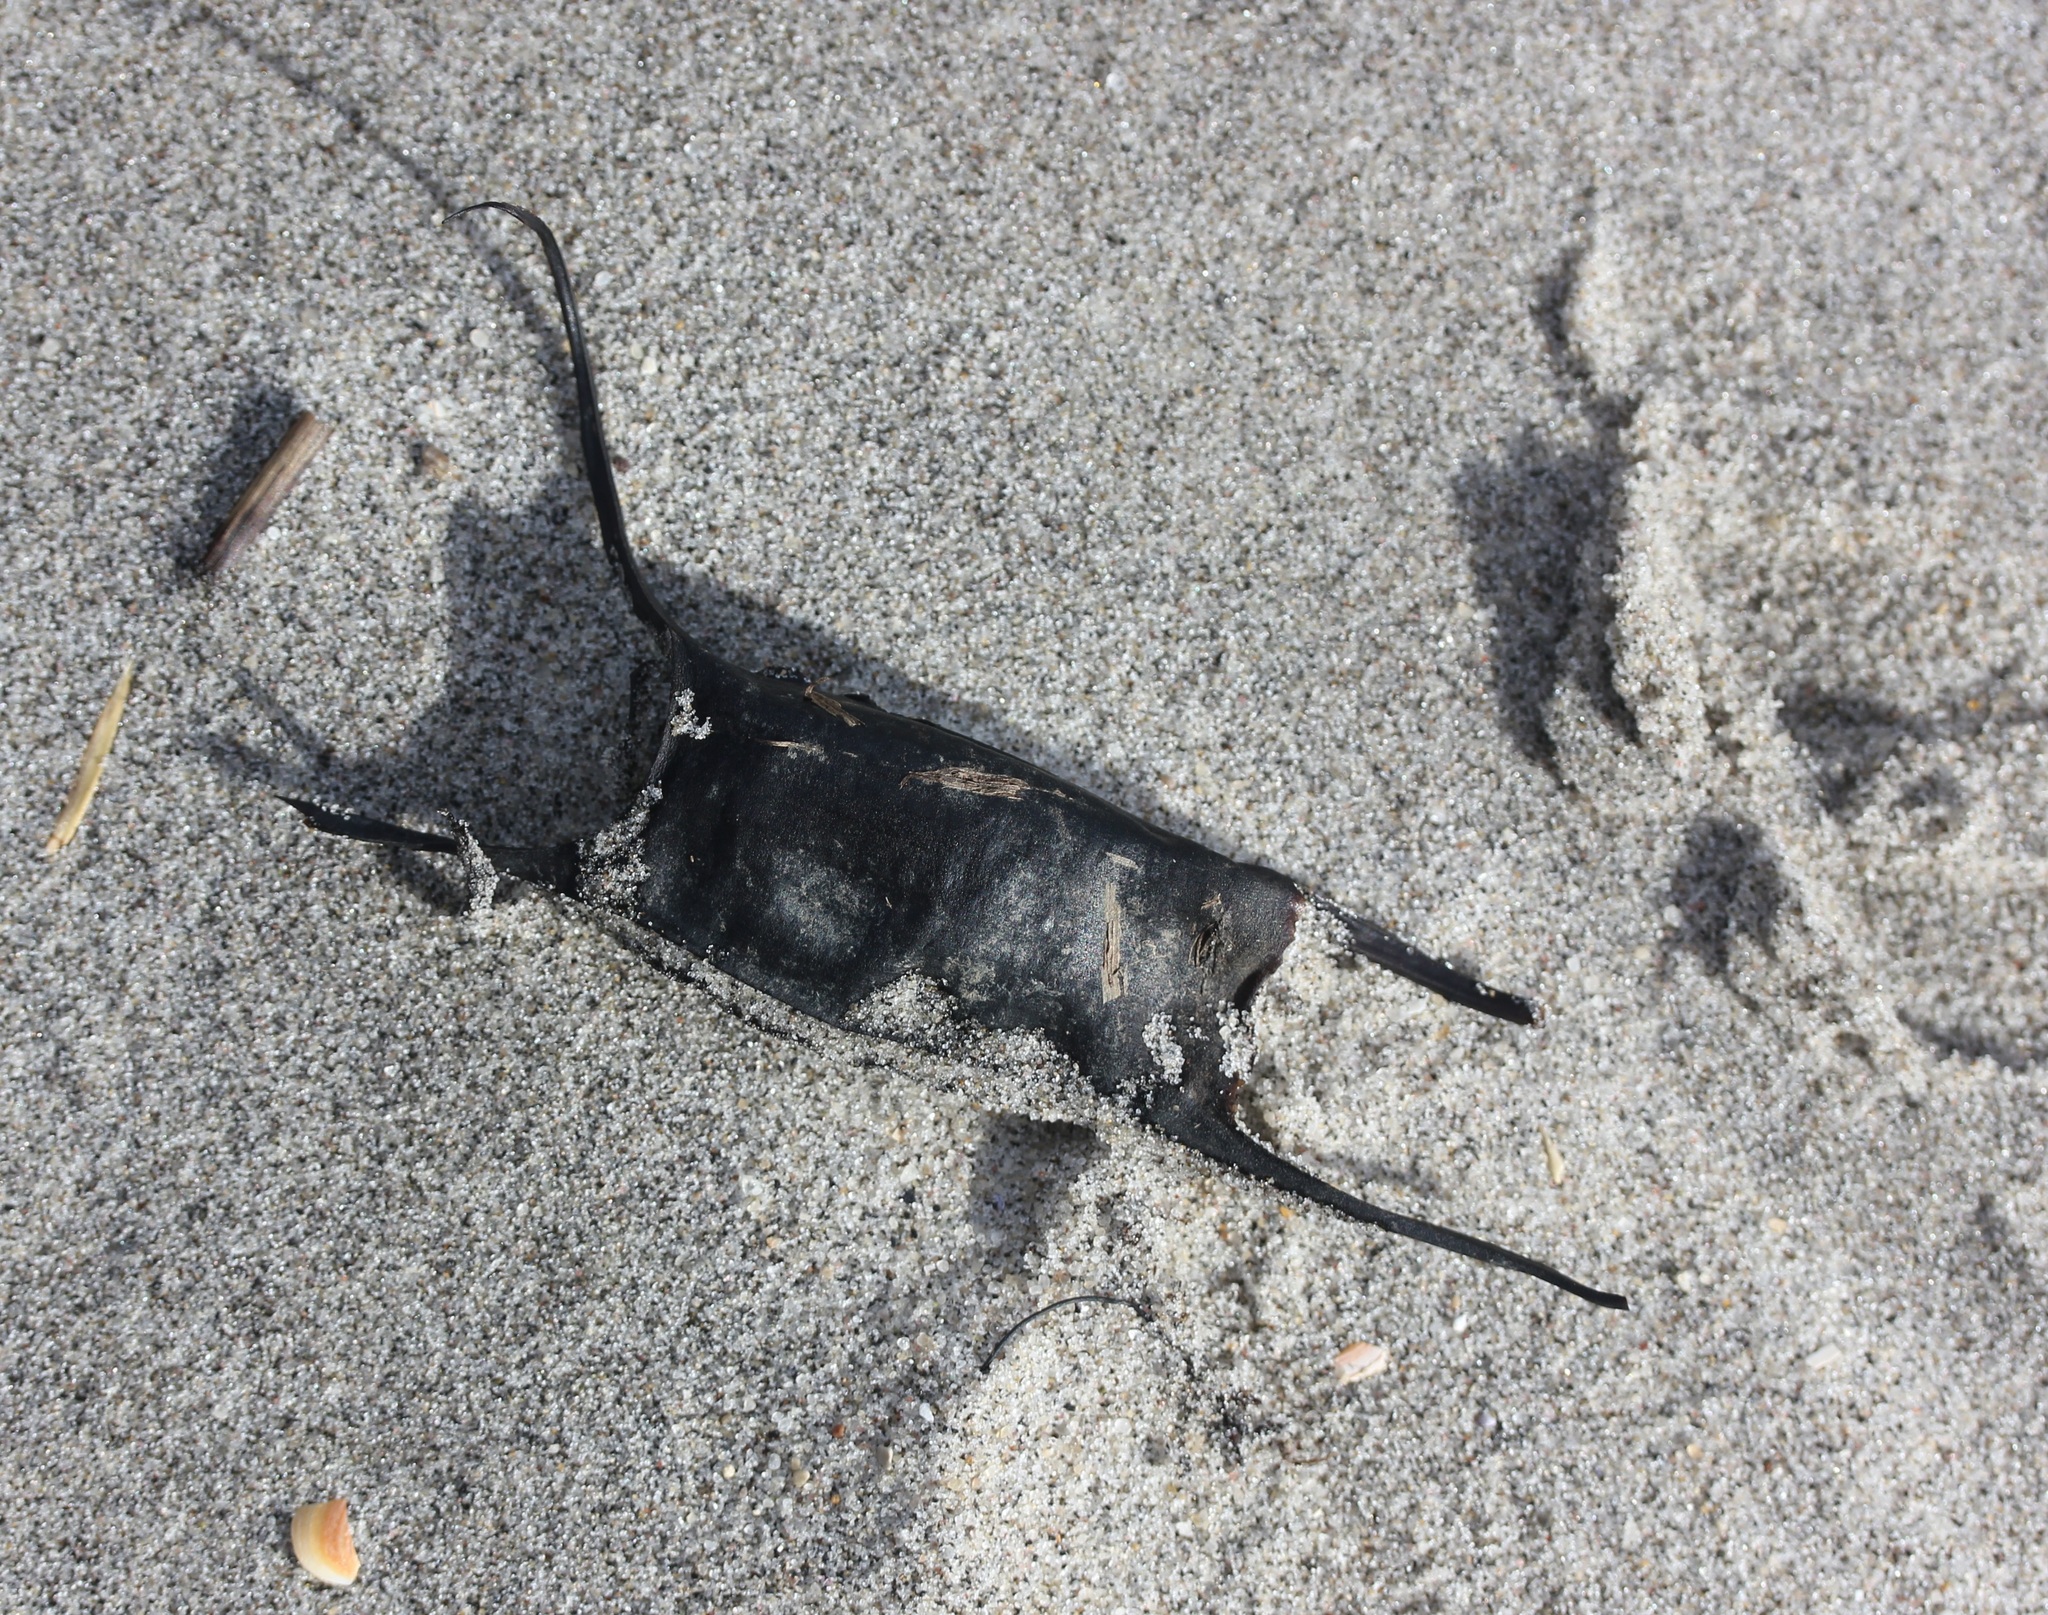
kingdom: Animalia
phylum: Chordata
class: Elasmobranchii
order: Rajiformes
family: Rajidae
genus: Leucoraja
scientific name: Leucoraja erinacea
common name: Little skate
